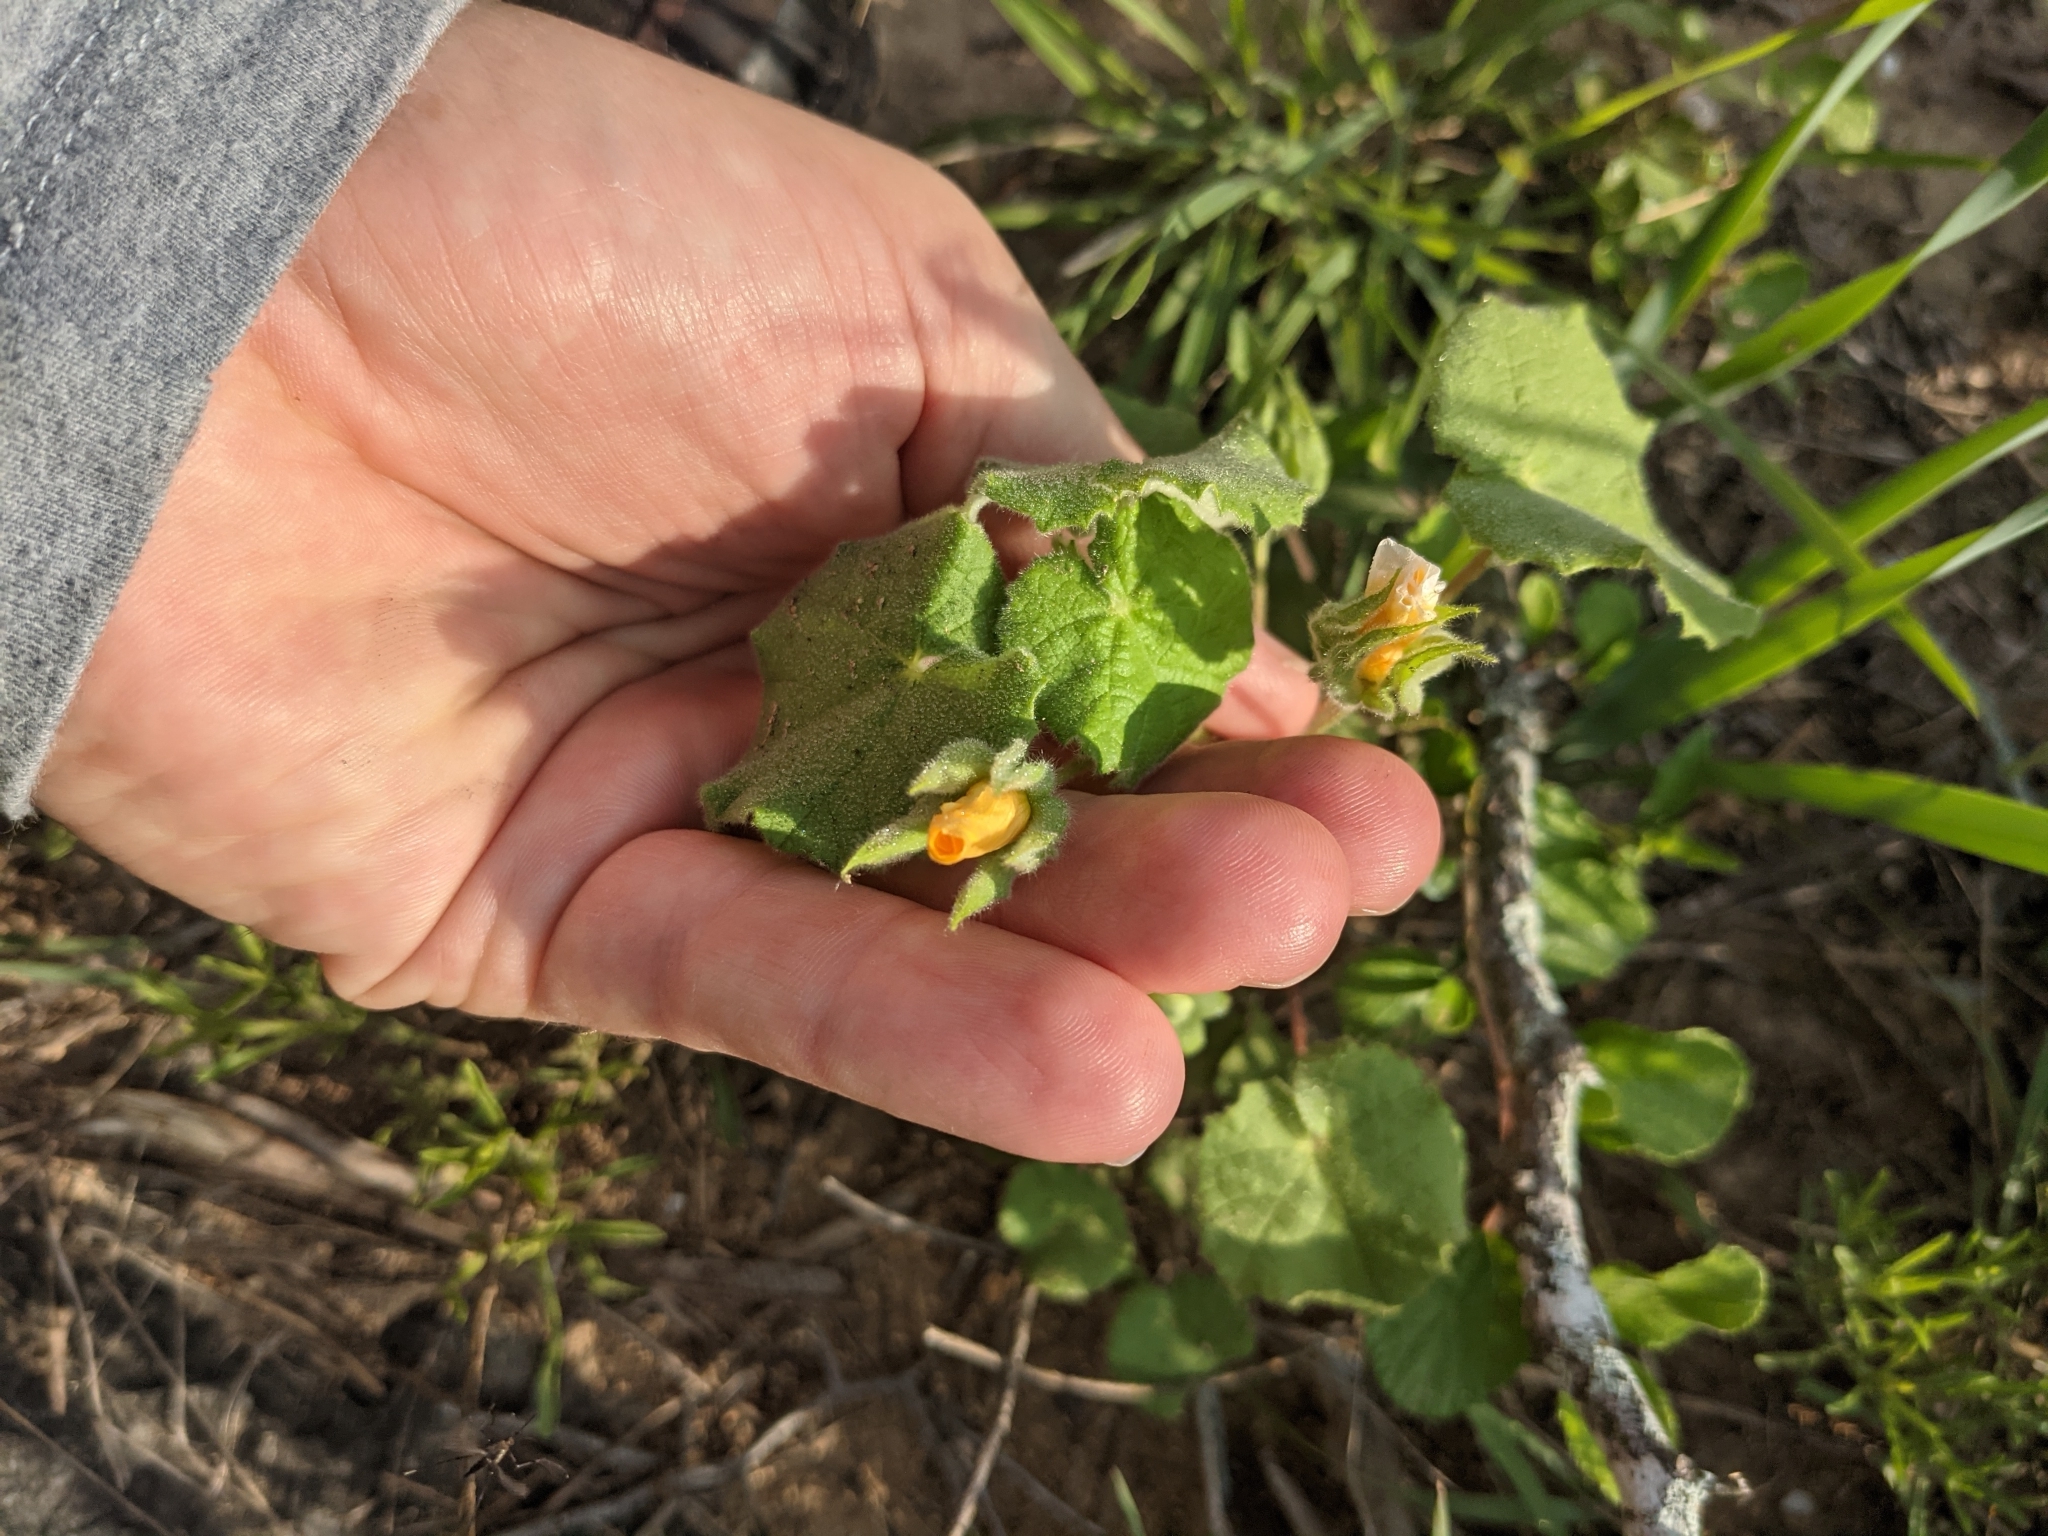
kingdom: Plantae
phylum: Tracheophyta
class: Magnoliopsida
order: Malvales
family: Malvaceae
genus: Abutilon
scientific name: Abutilon wrightii
